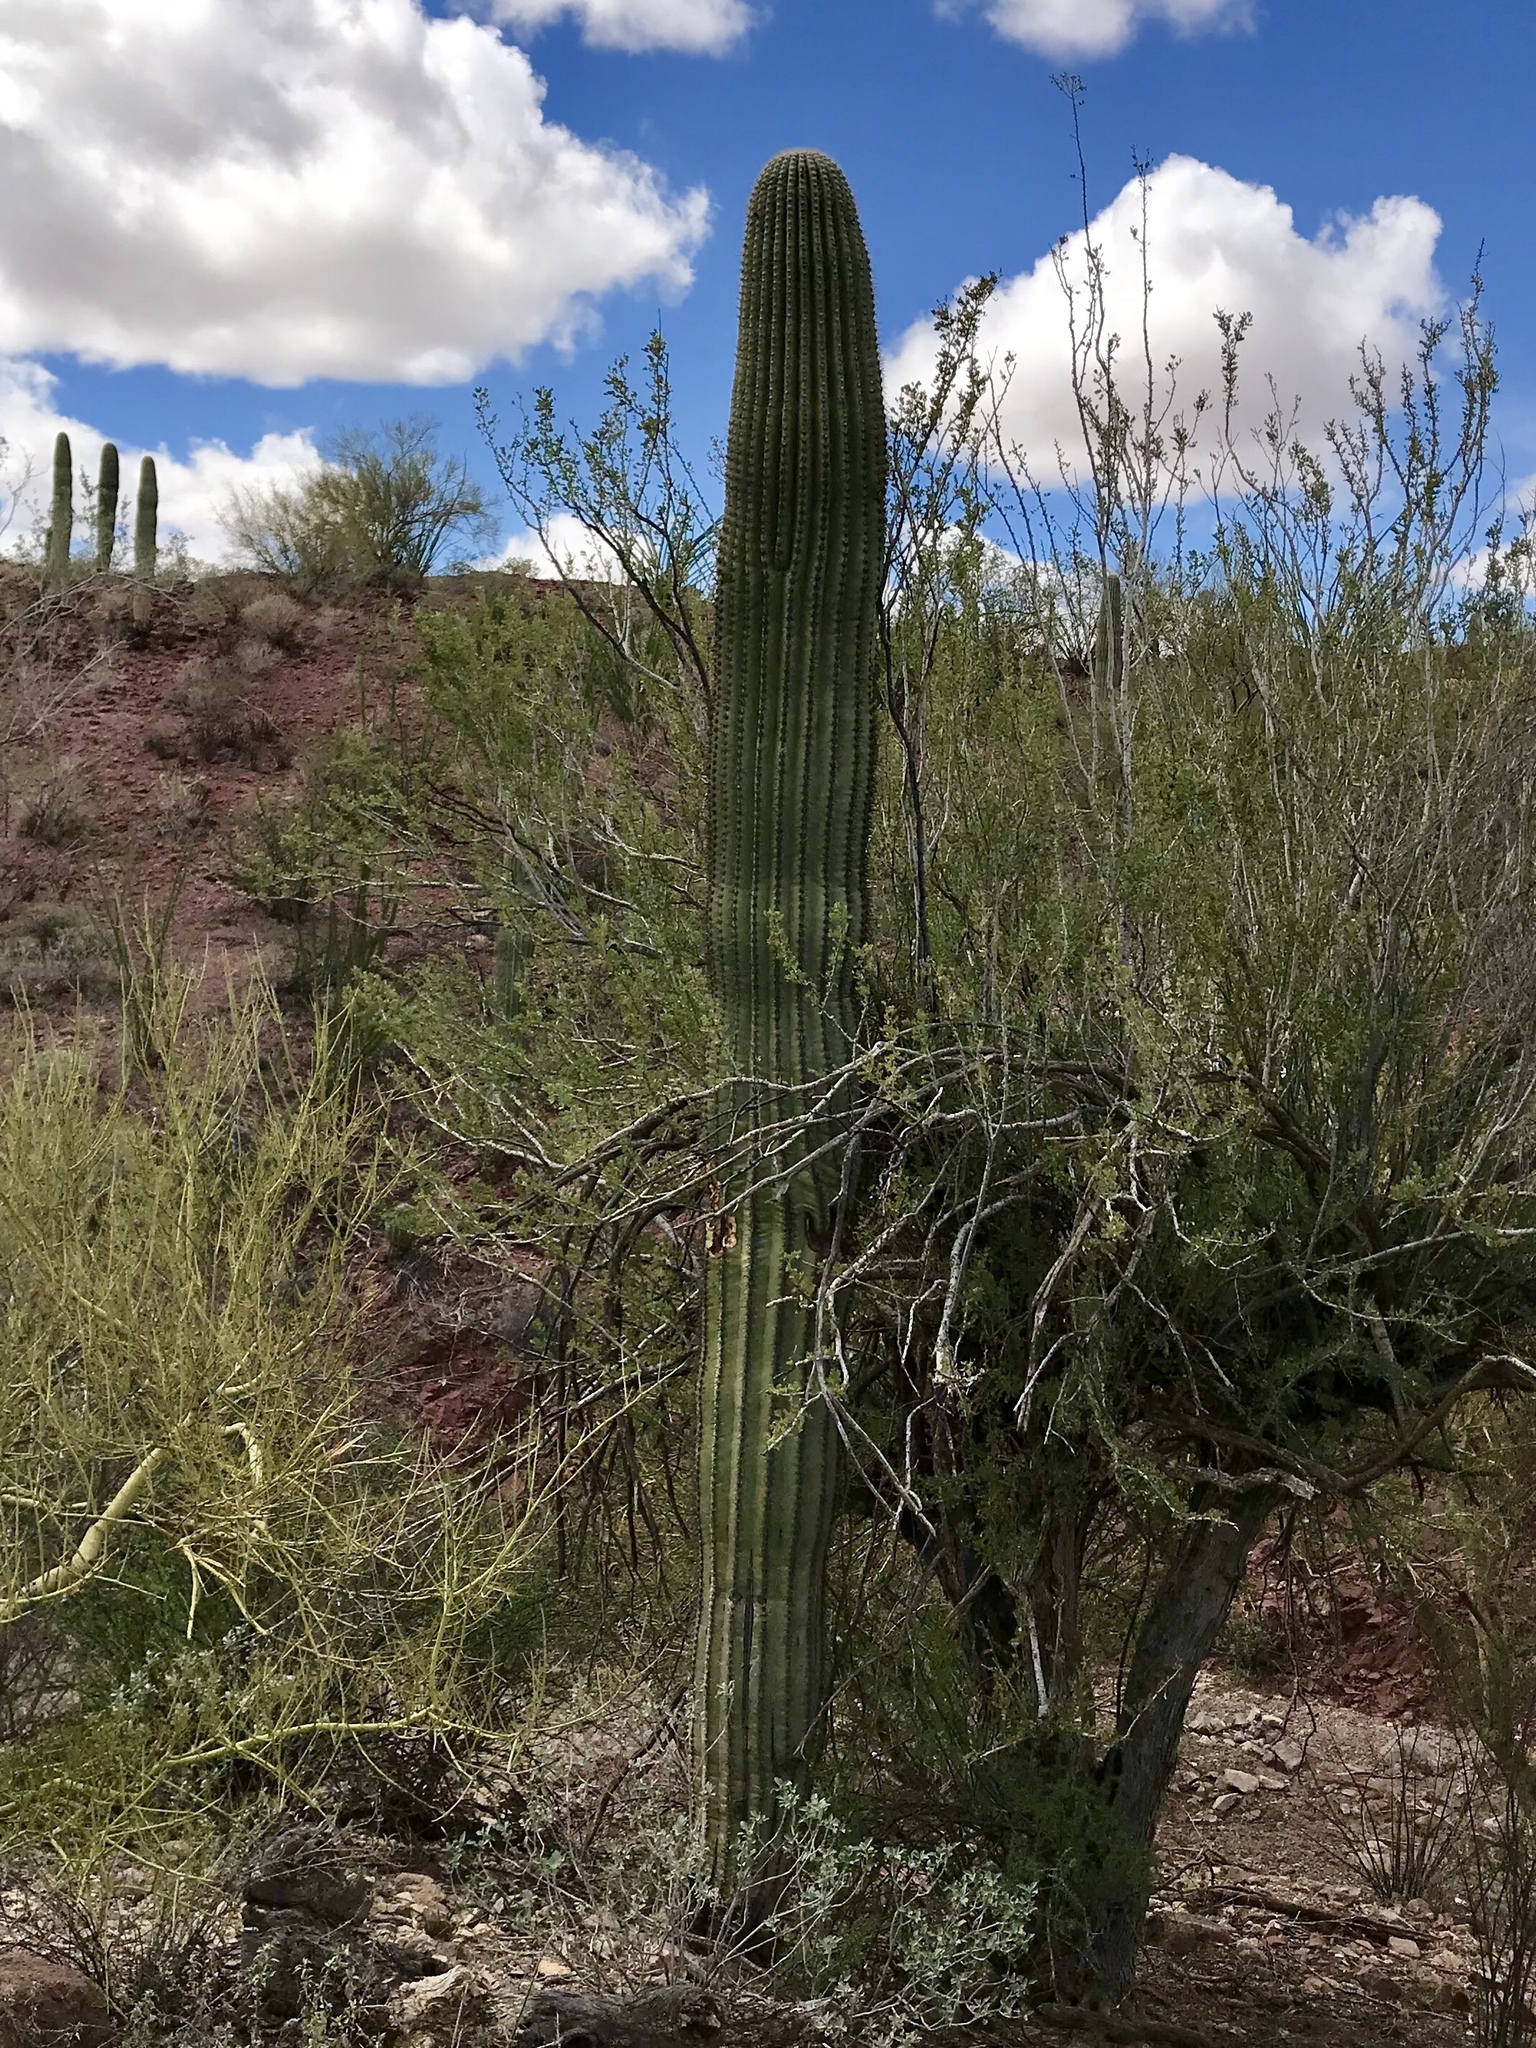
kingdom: Plantae
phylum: Tracheophyta
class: Magnoliopsida
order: Caryophyllales
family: Cactaceae
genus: Carnegiea
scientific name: Carnegiea gigantea
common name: Saguaro
